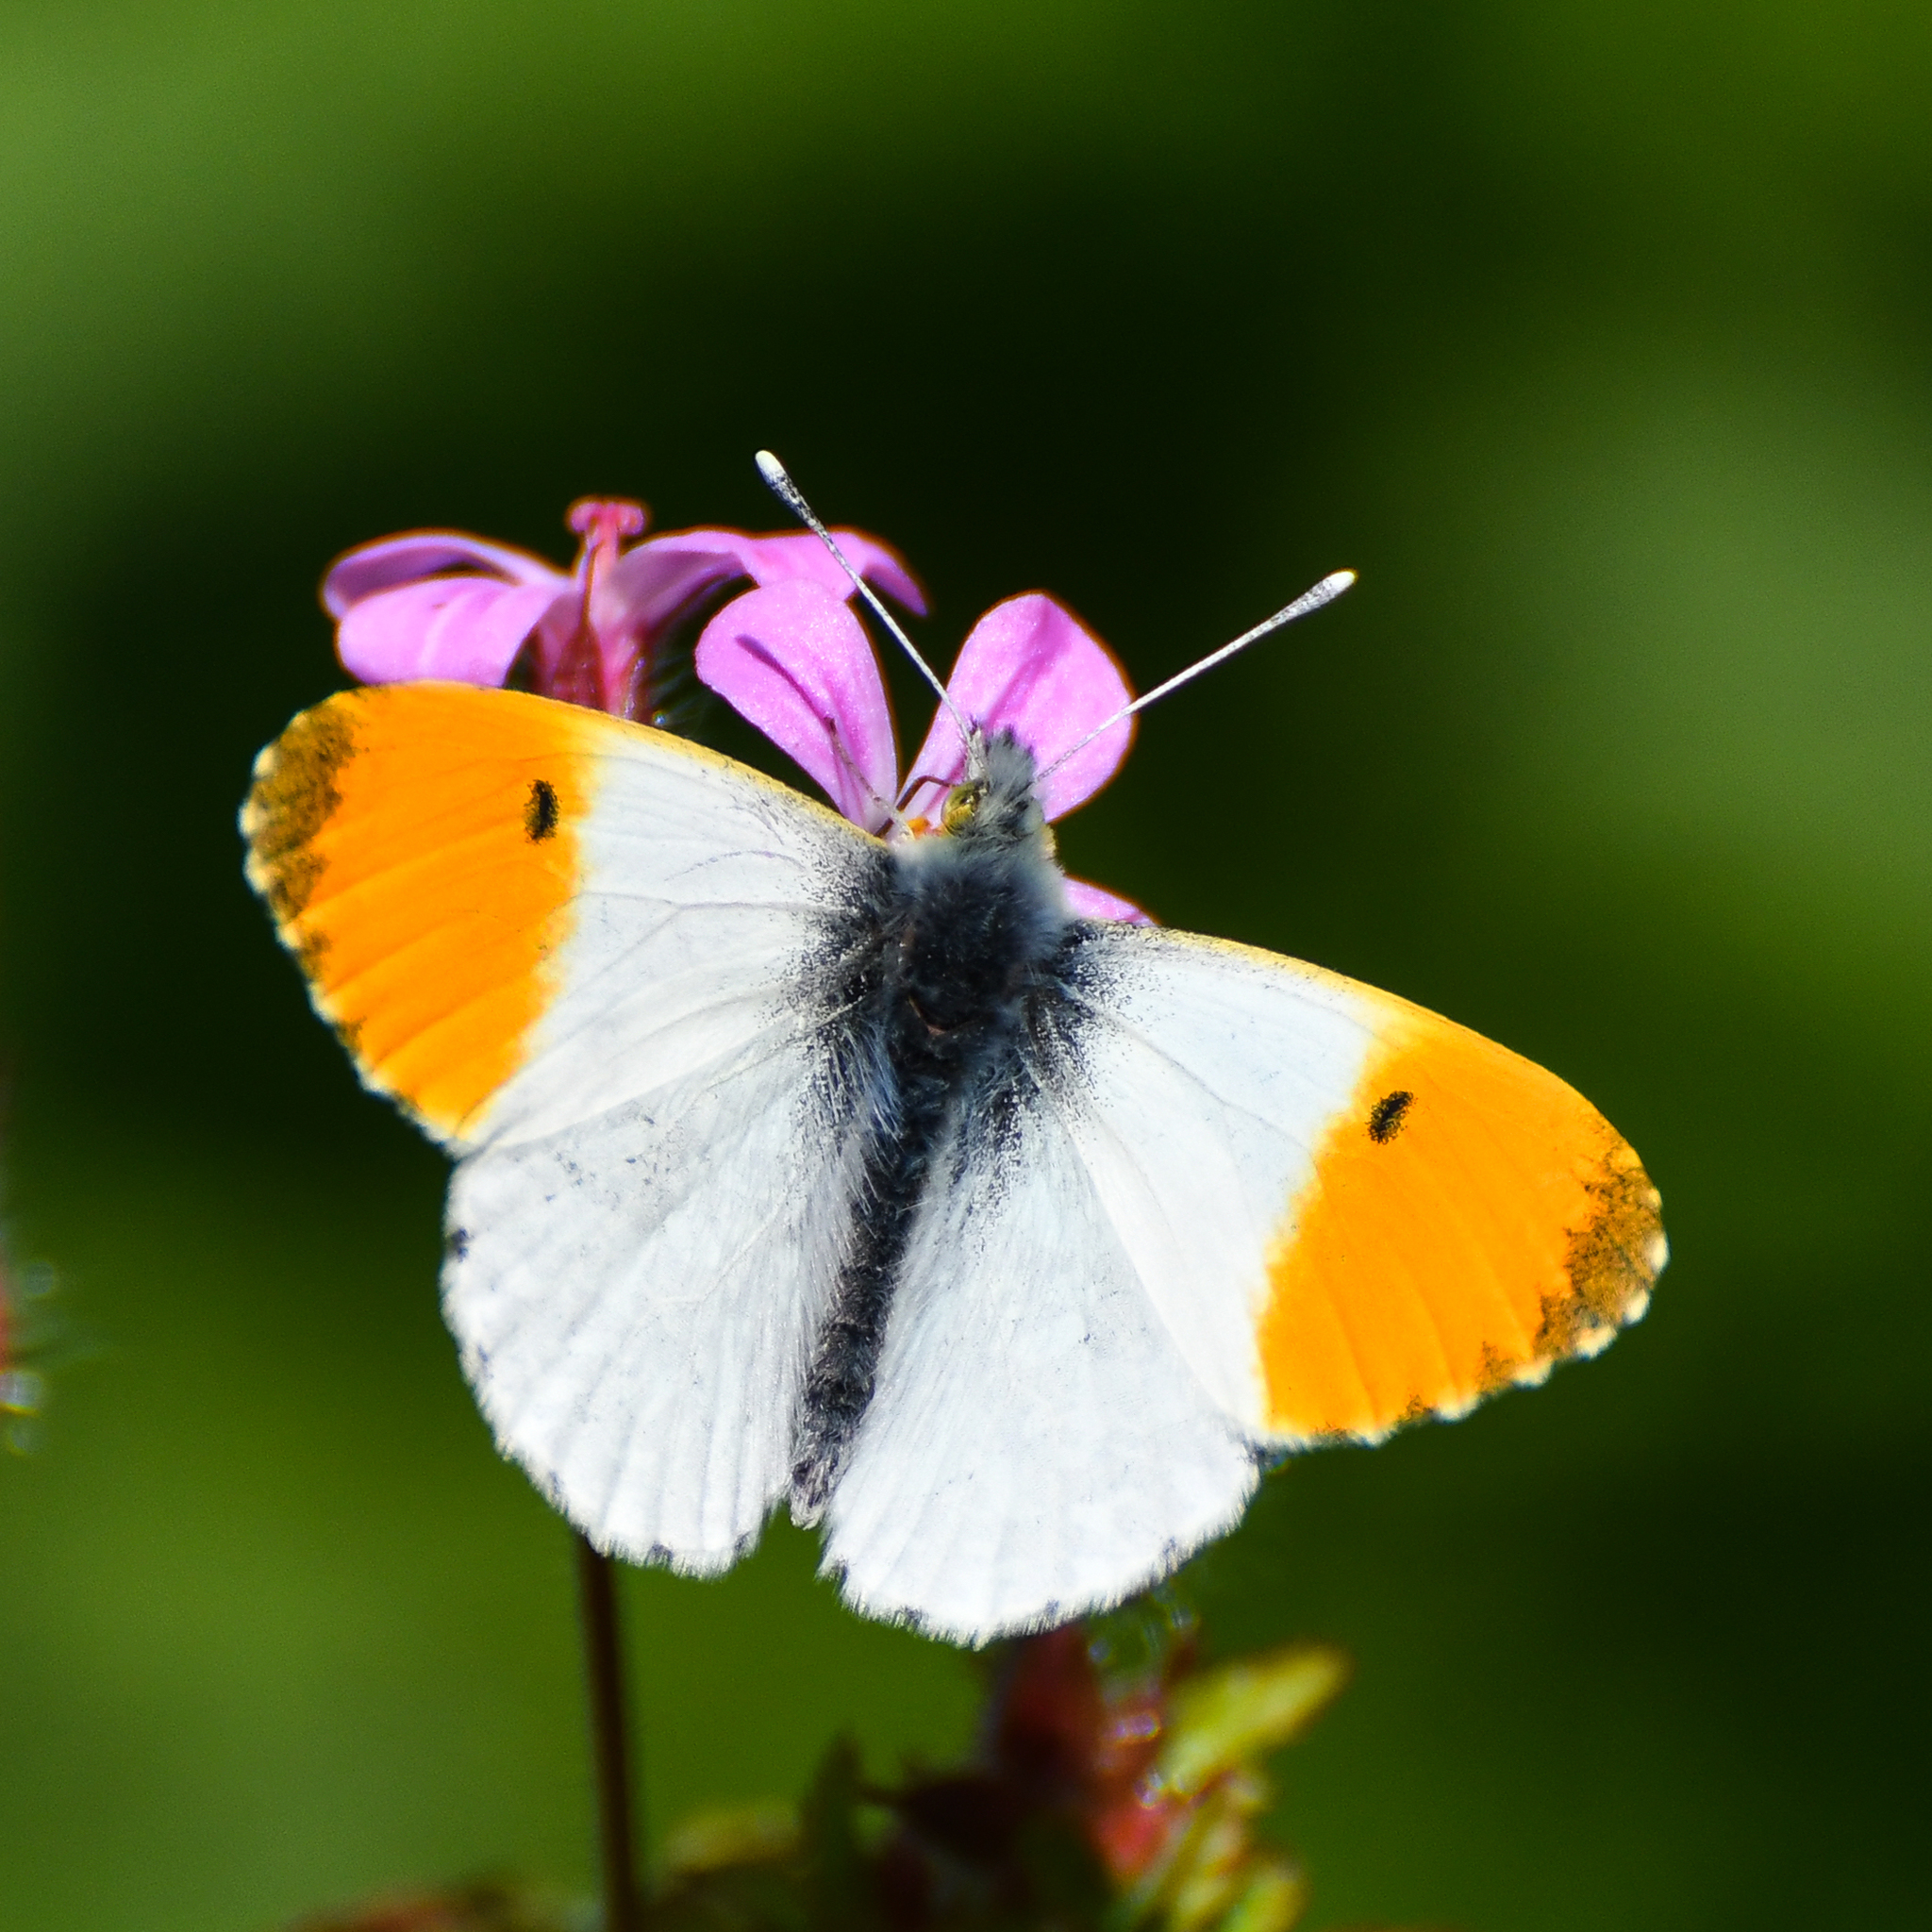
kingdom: Animalia
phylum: Arthropoda
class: Insecta
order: Lepidoptera
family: Pieridae
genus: Anthocharis
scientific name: Anthocharis cardamines
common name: Orange-tip
